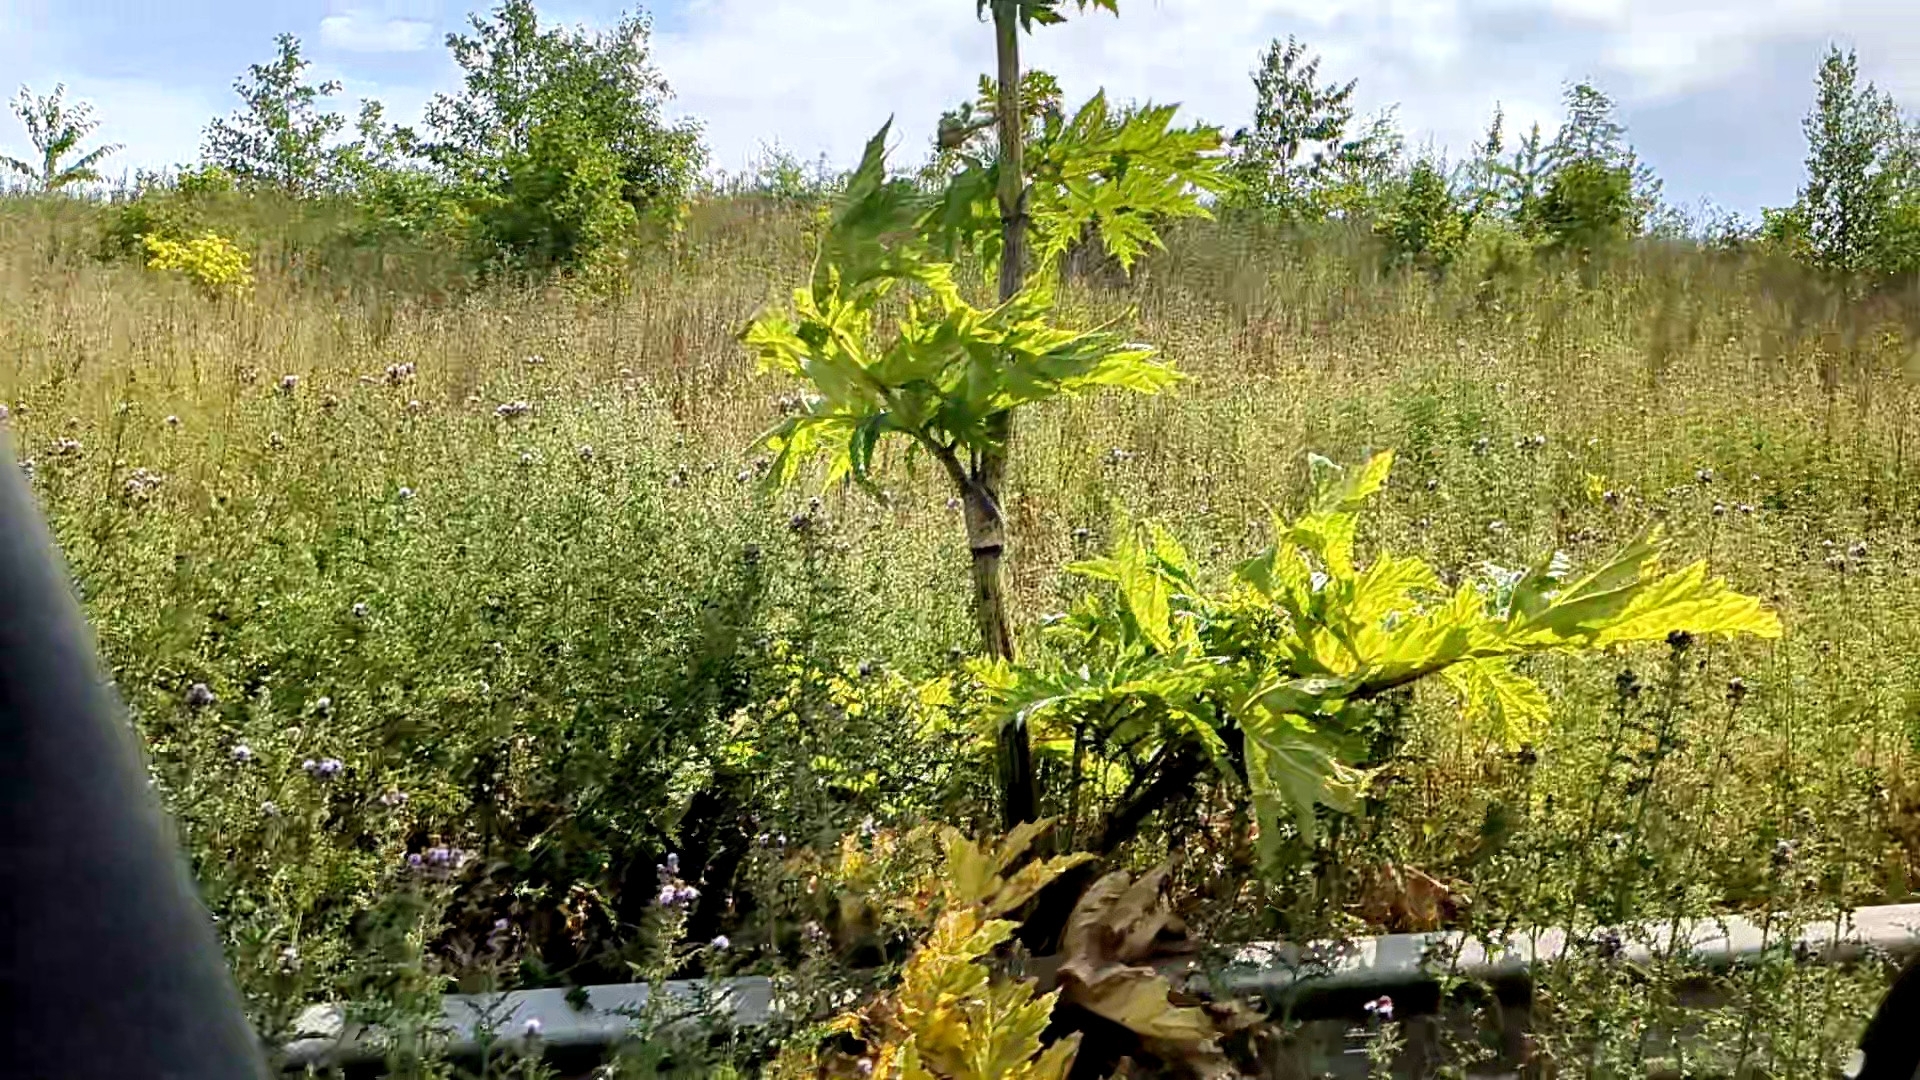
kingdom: Plantae
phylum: Tracheophyta
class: Magnoliopsida
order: Apiales
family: Apiaceae
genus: Heracleum
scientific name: Heracleum mantegazzianum
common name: Giant hogweed
